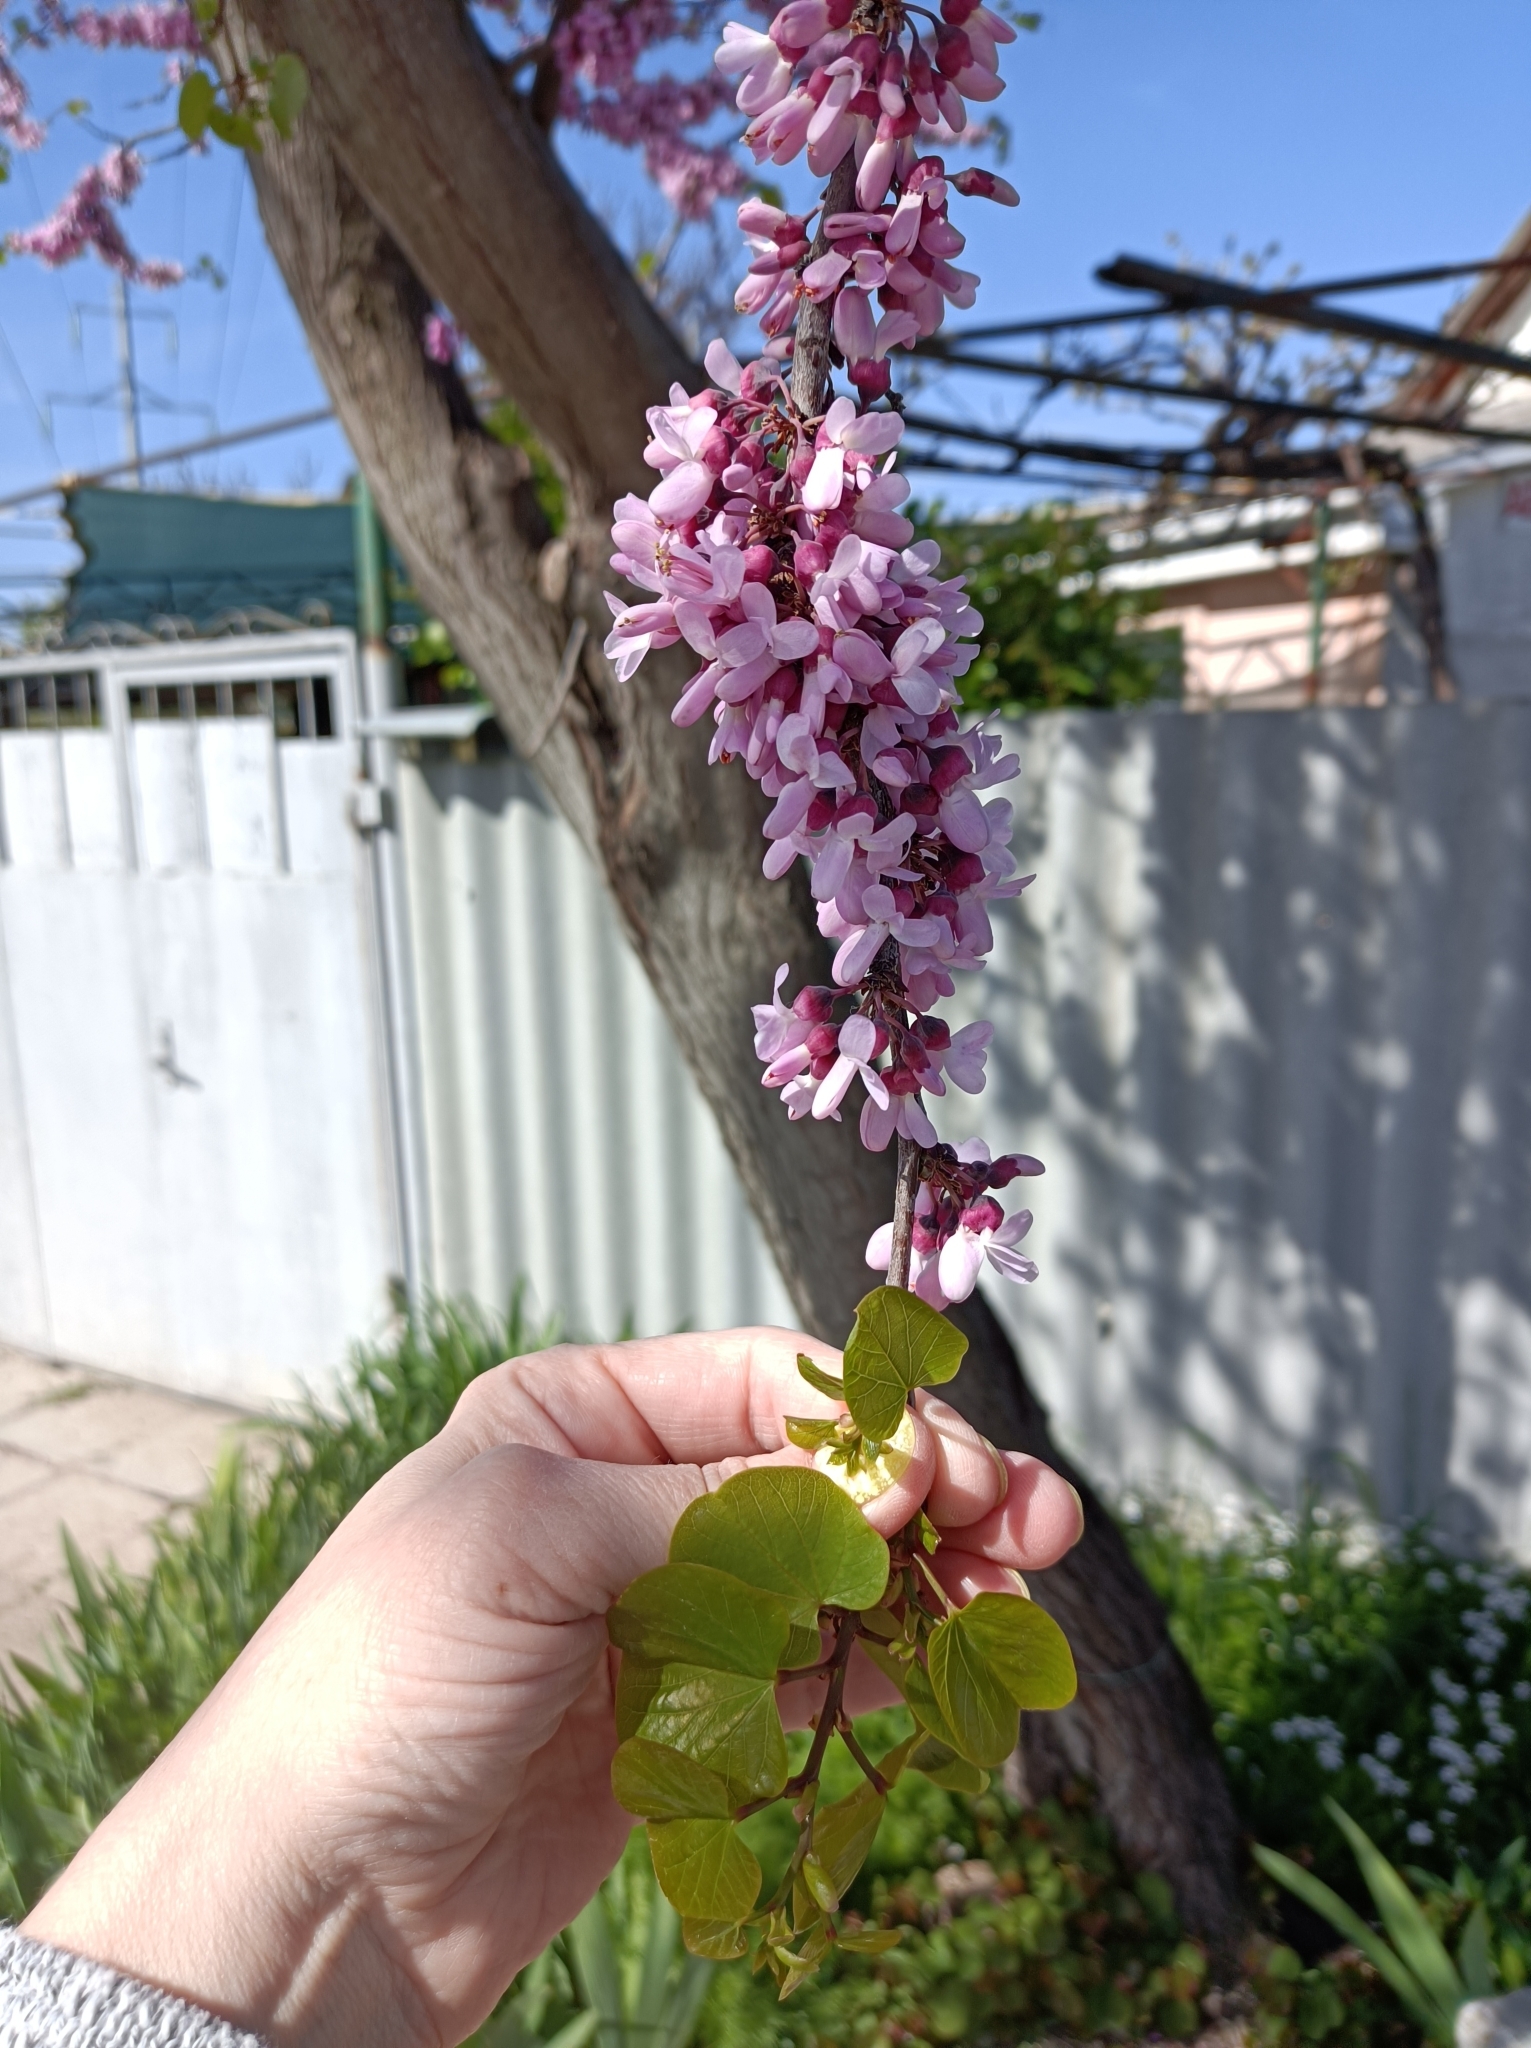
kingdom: Plantae
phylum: Tracheophyta
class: Magnoliopsida
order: Fabales
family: Fabaceae
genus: Cercis
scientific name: Cercis siliquastrum
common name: Judas tree
